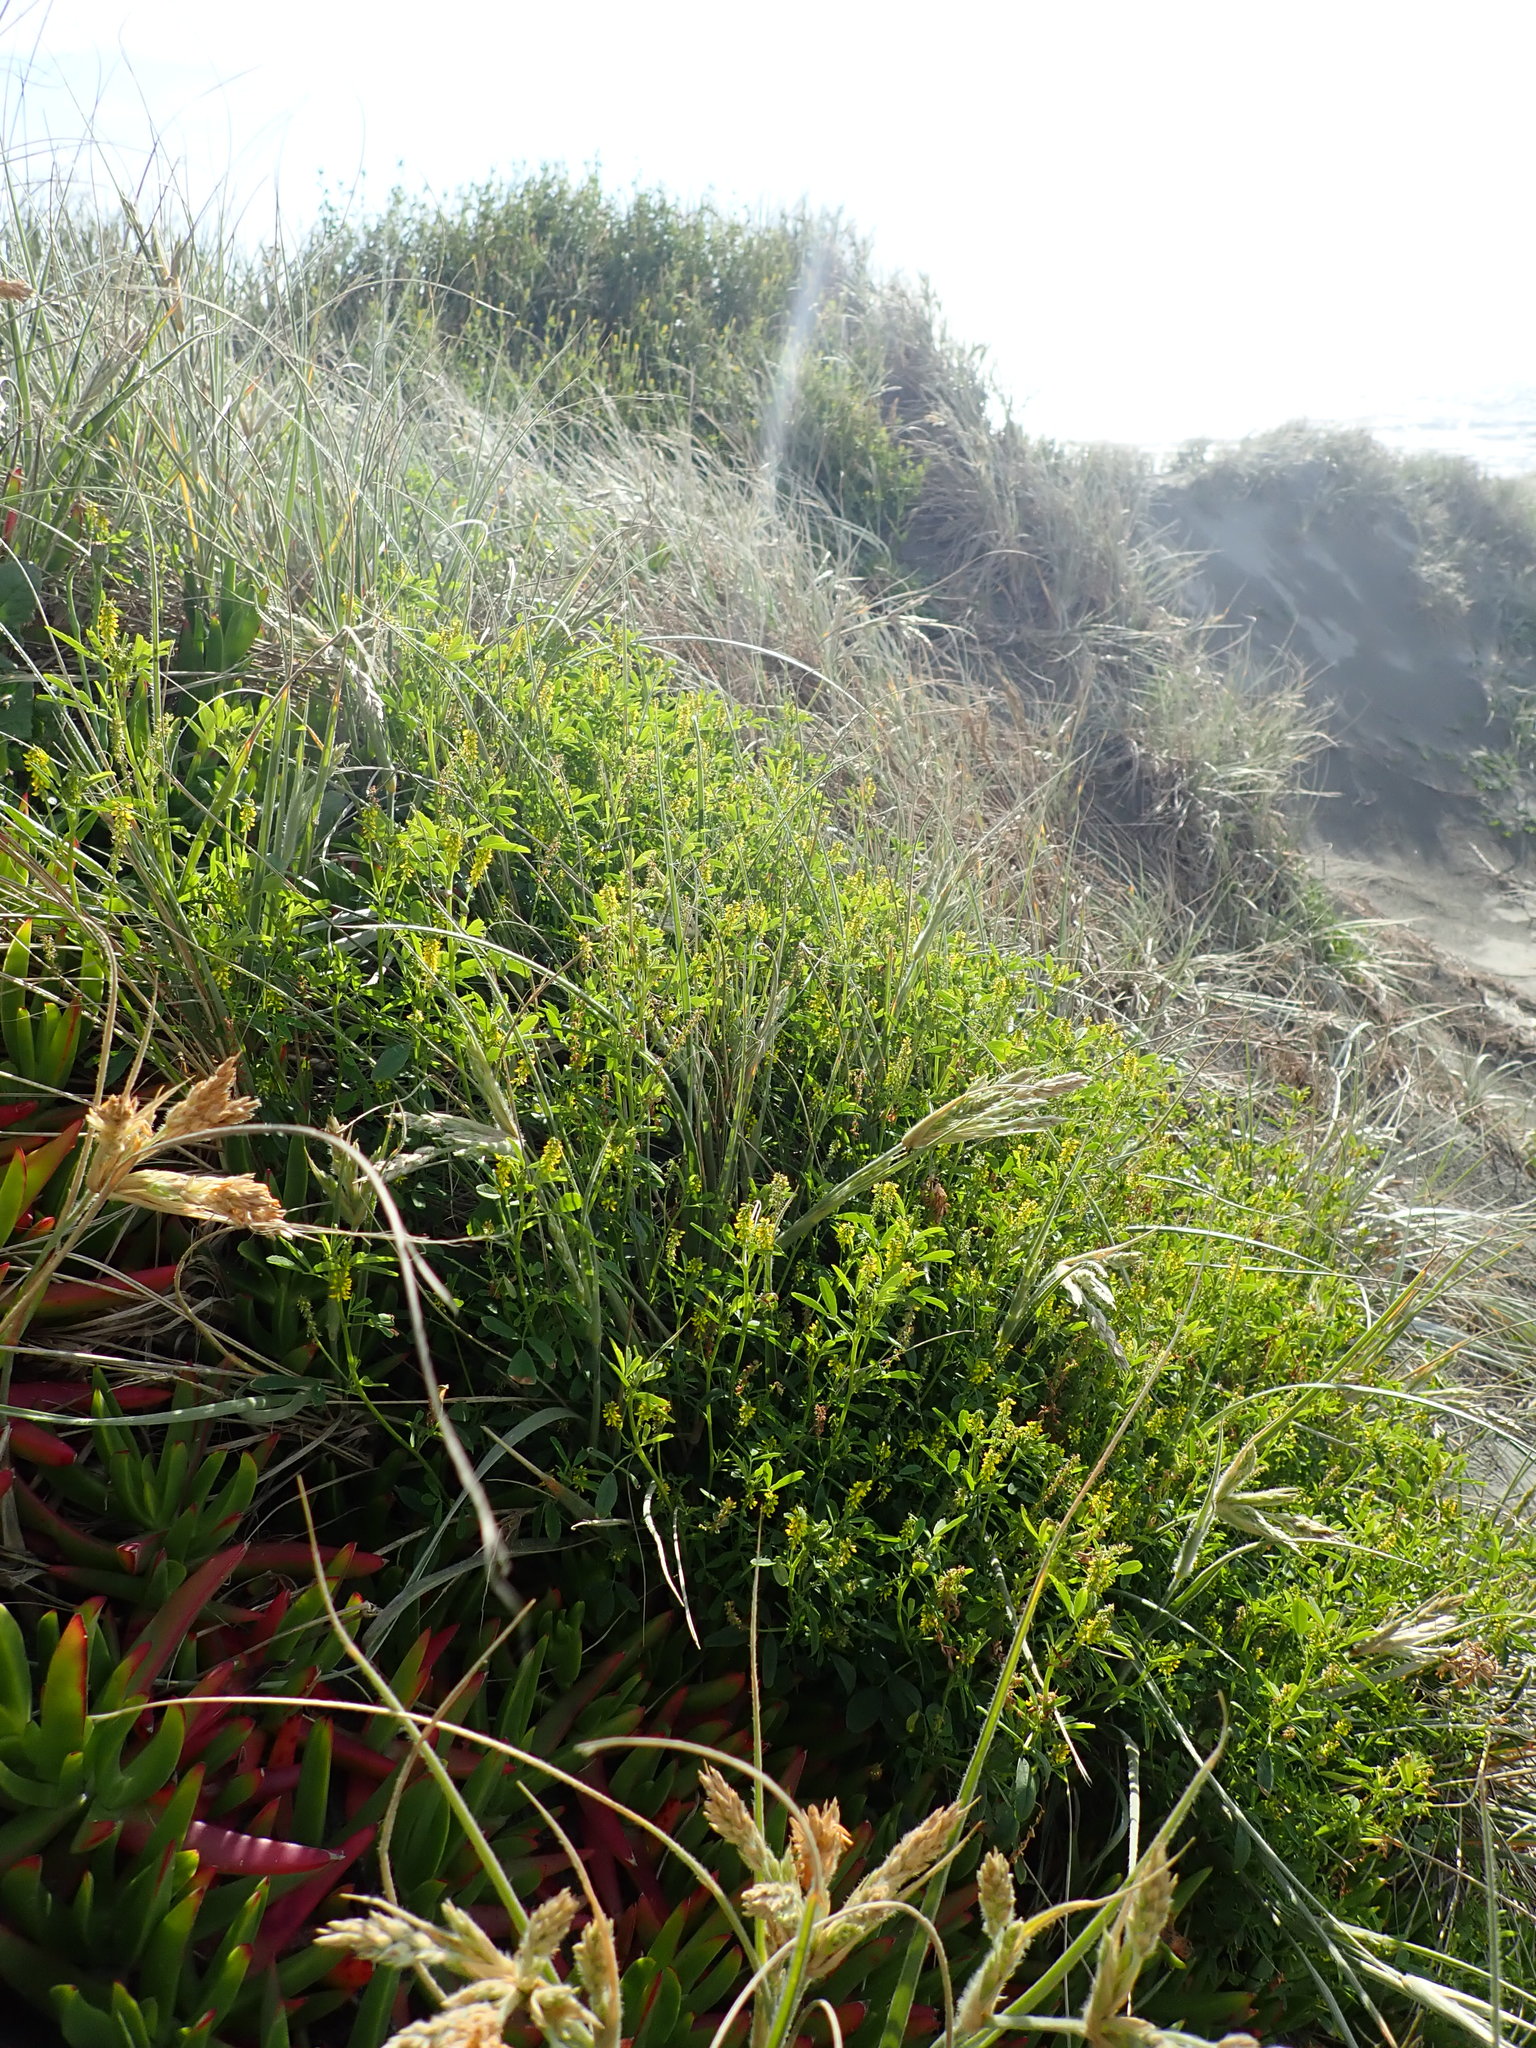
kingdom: Plantae
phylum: Tracheophyta
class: Magnoliopsida
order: Fabales
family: Fabaceae
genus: Melilotus
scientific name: Melilotus indicus
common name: Small melilot
